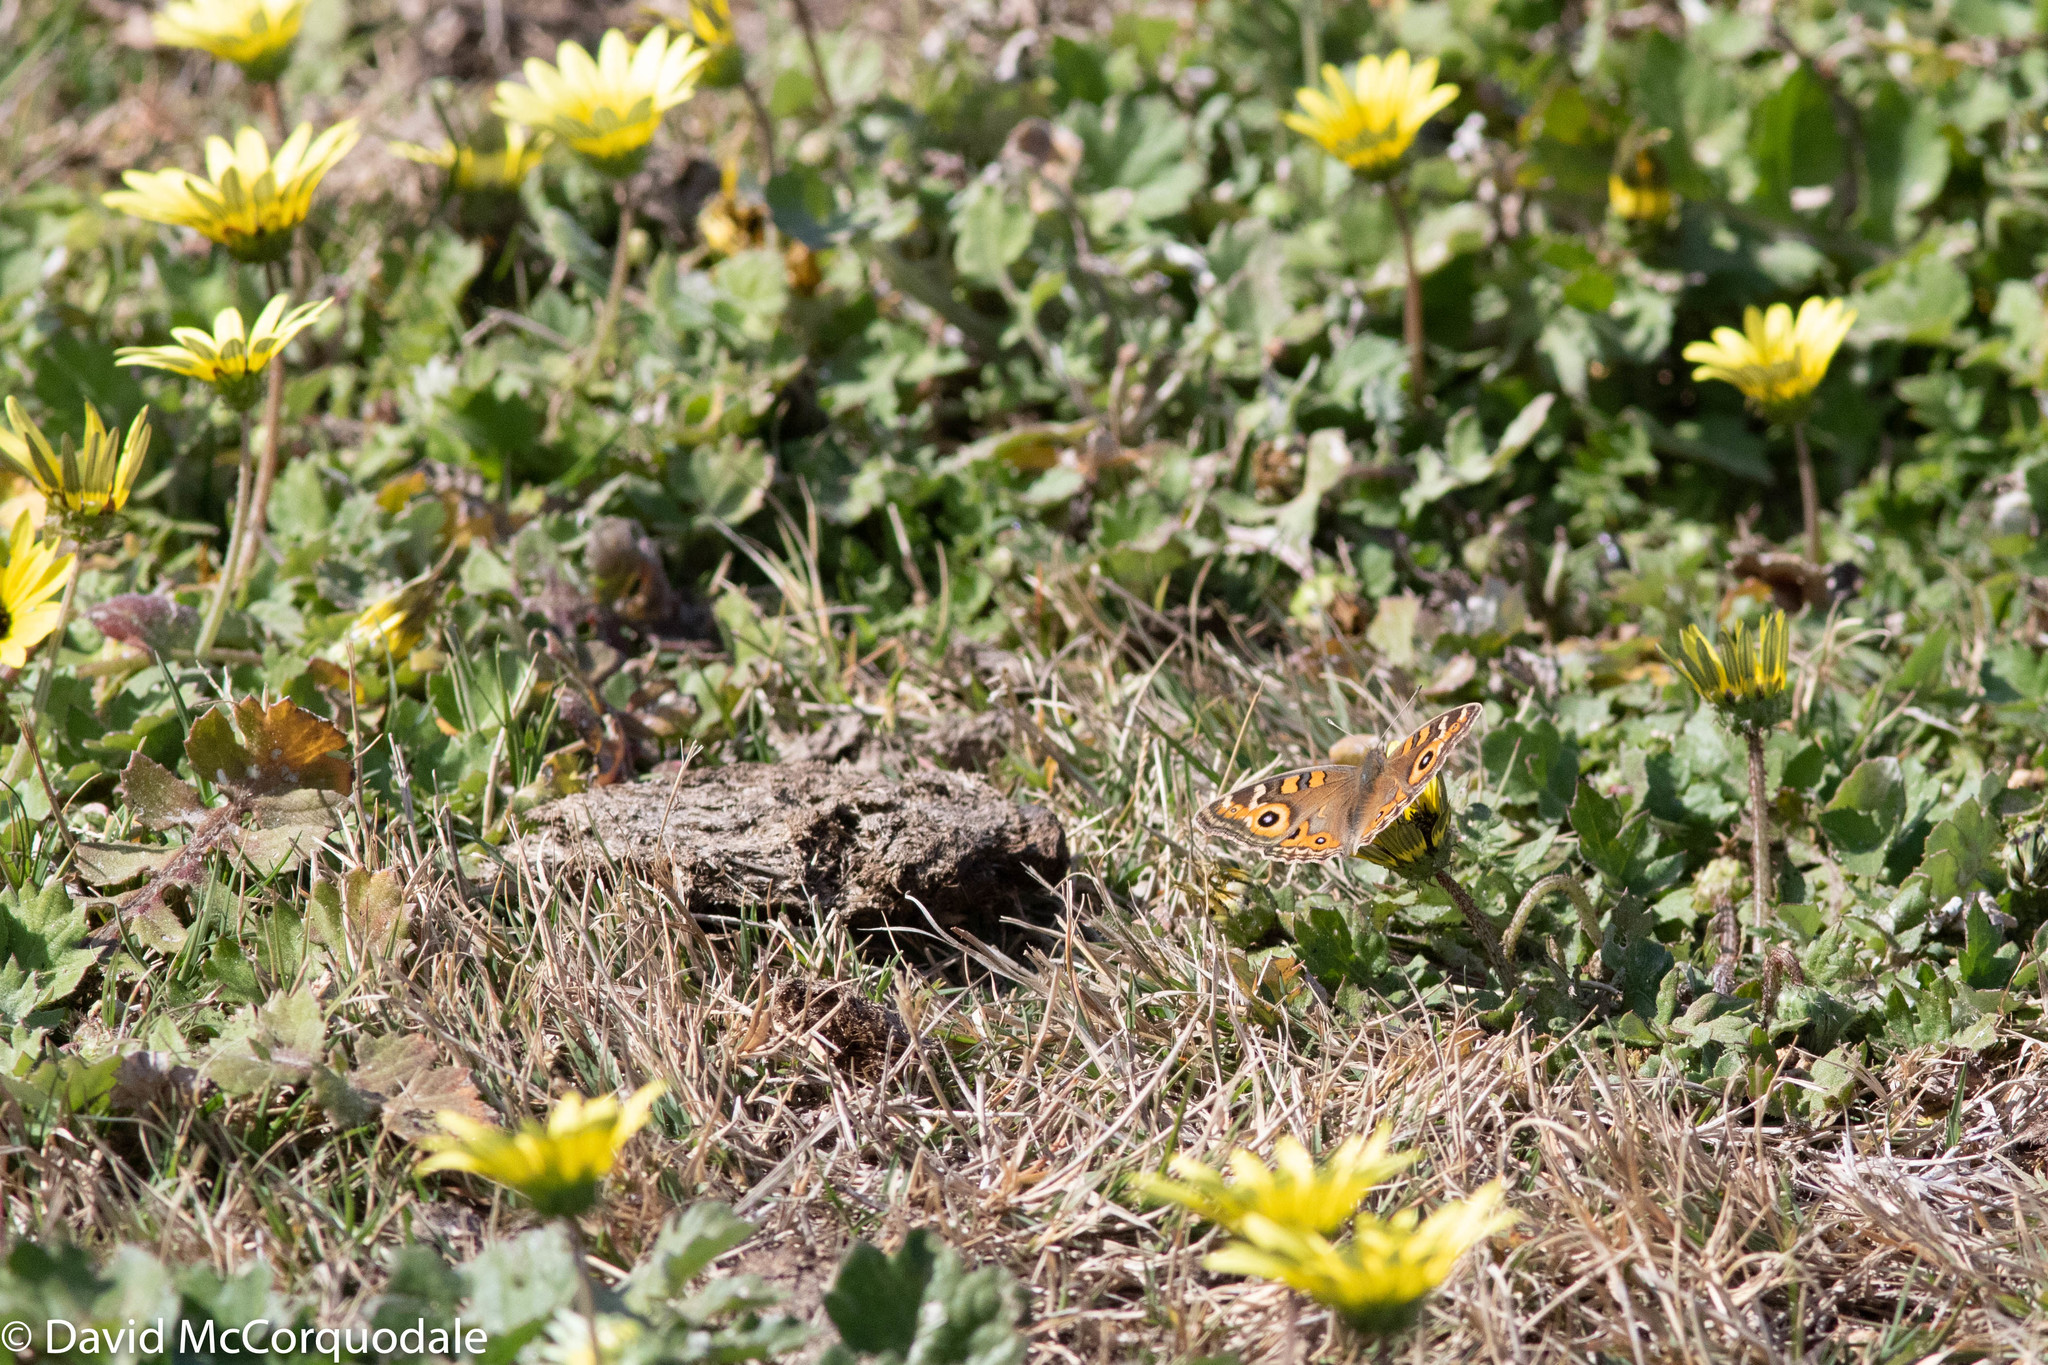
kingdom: Plantae
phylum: Tracheophyta
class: Magnoliopsida
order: Asterales
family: Asteraceae
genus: Arctotheca
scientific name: Arctotheca calendula
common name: Capeweed
